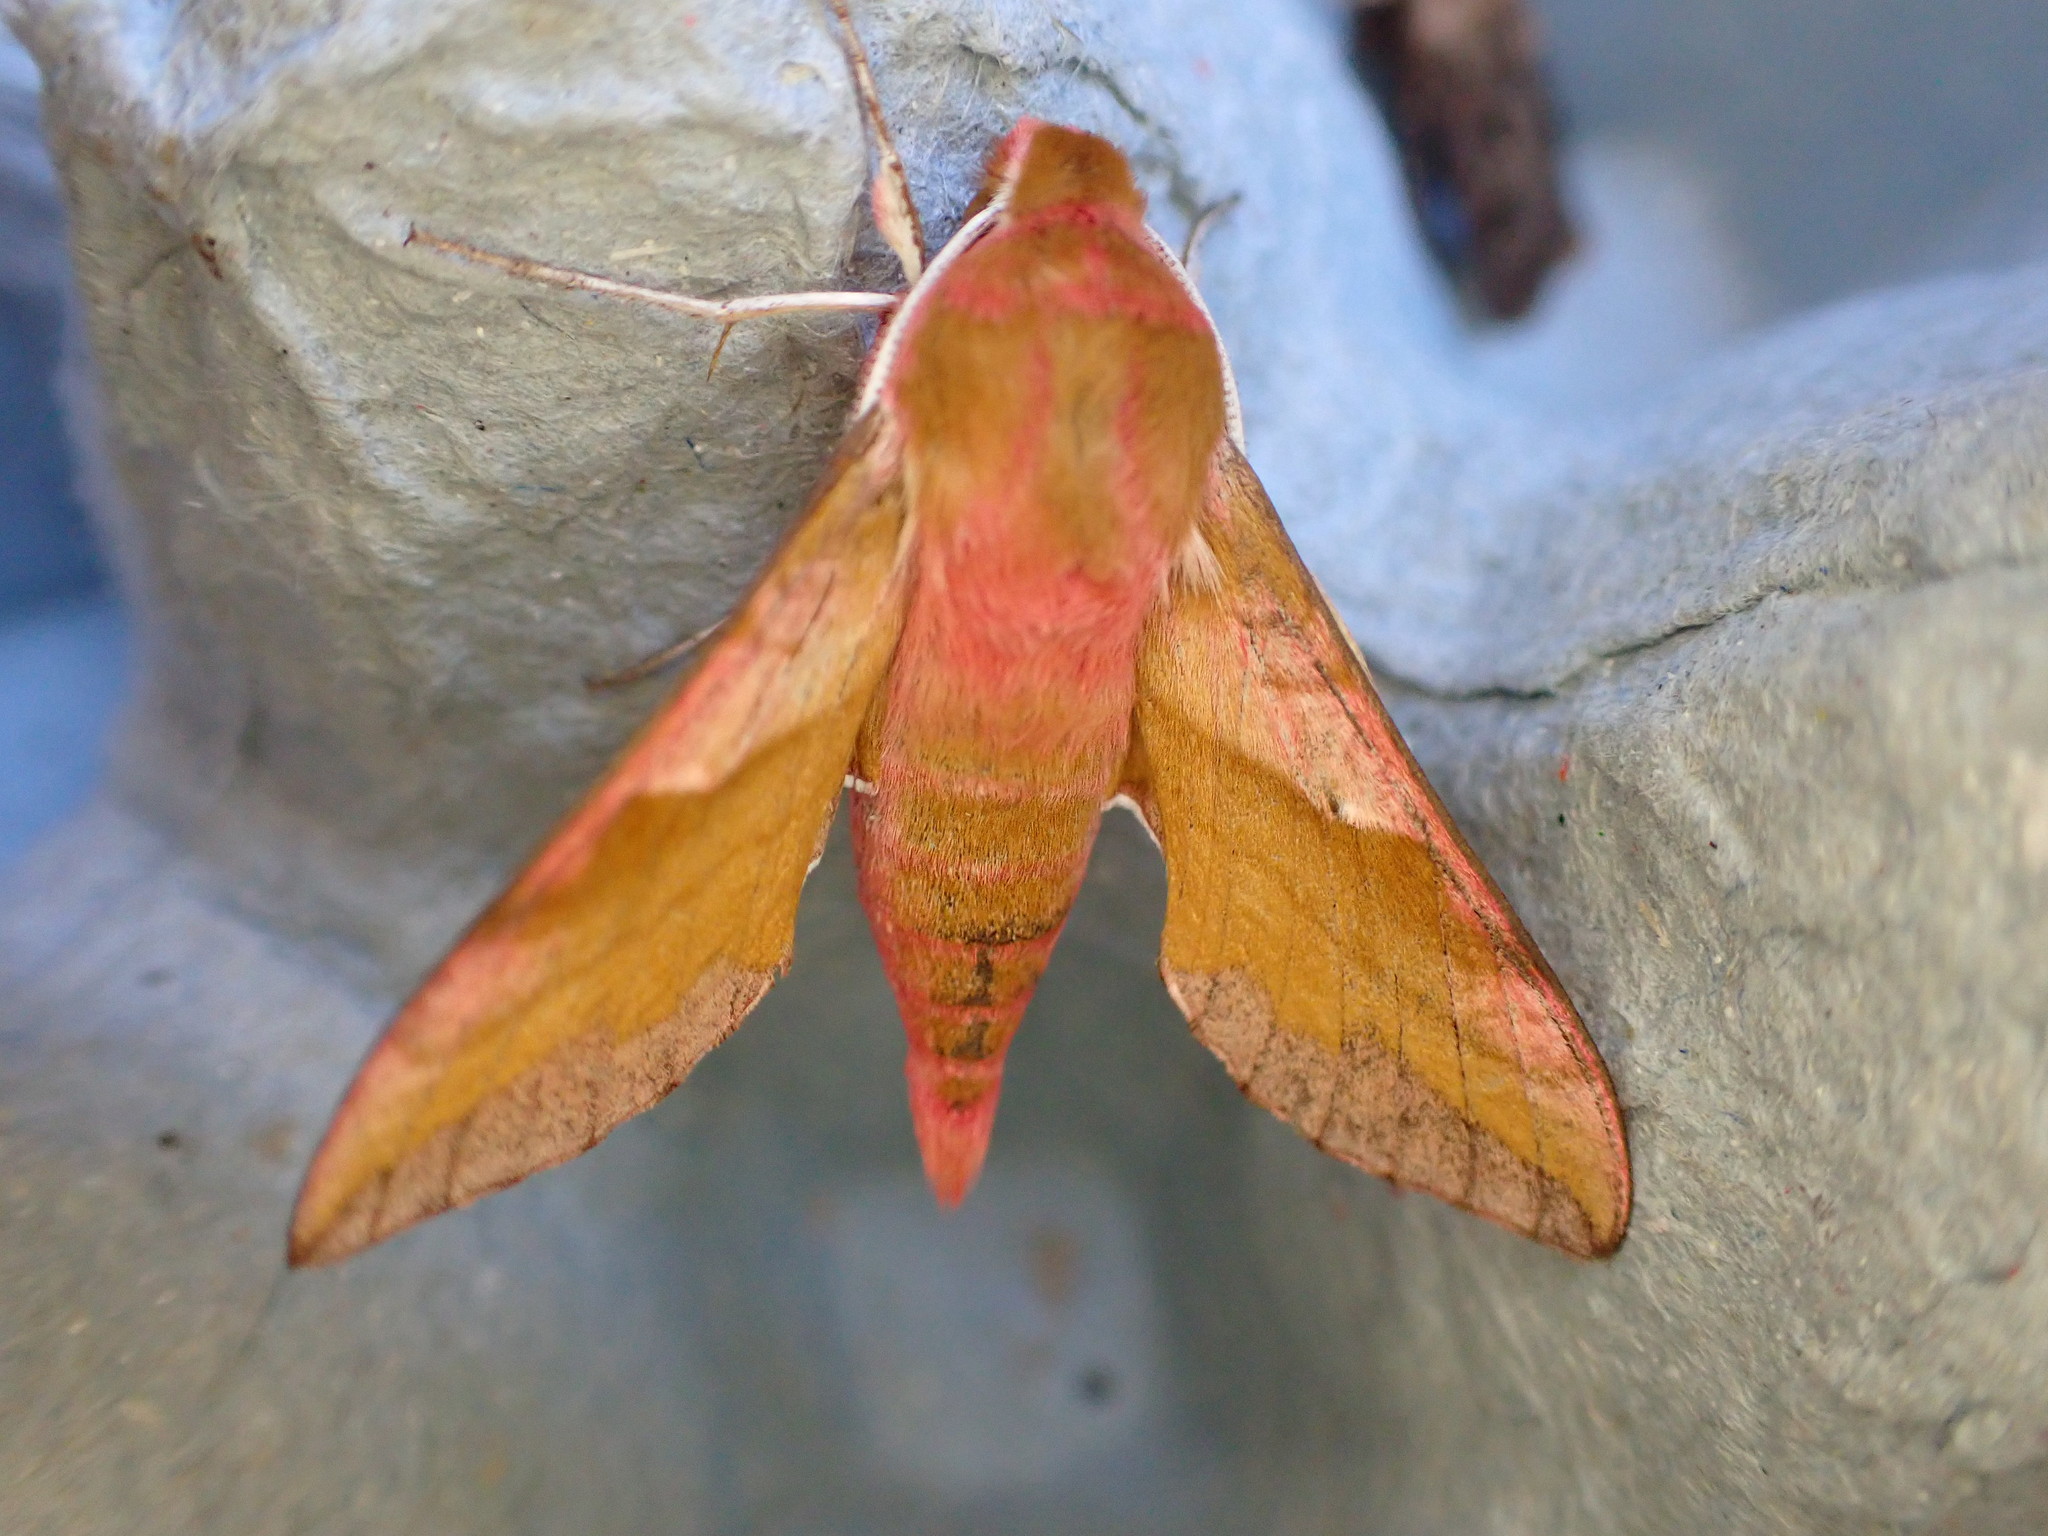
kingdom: Animalia
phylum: Arthropoda
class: Insecta
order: Lepidoptera
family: Sphingidae
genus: Deilephila
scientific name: Deilephila porcellus
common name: Small elephant hawk-moth
